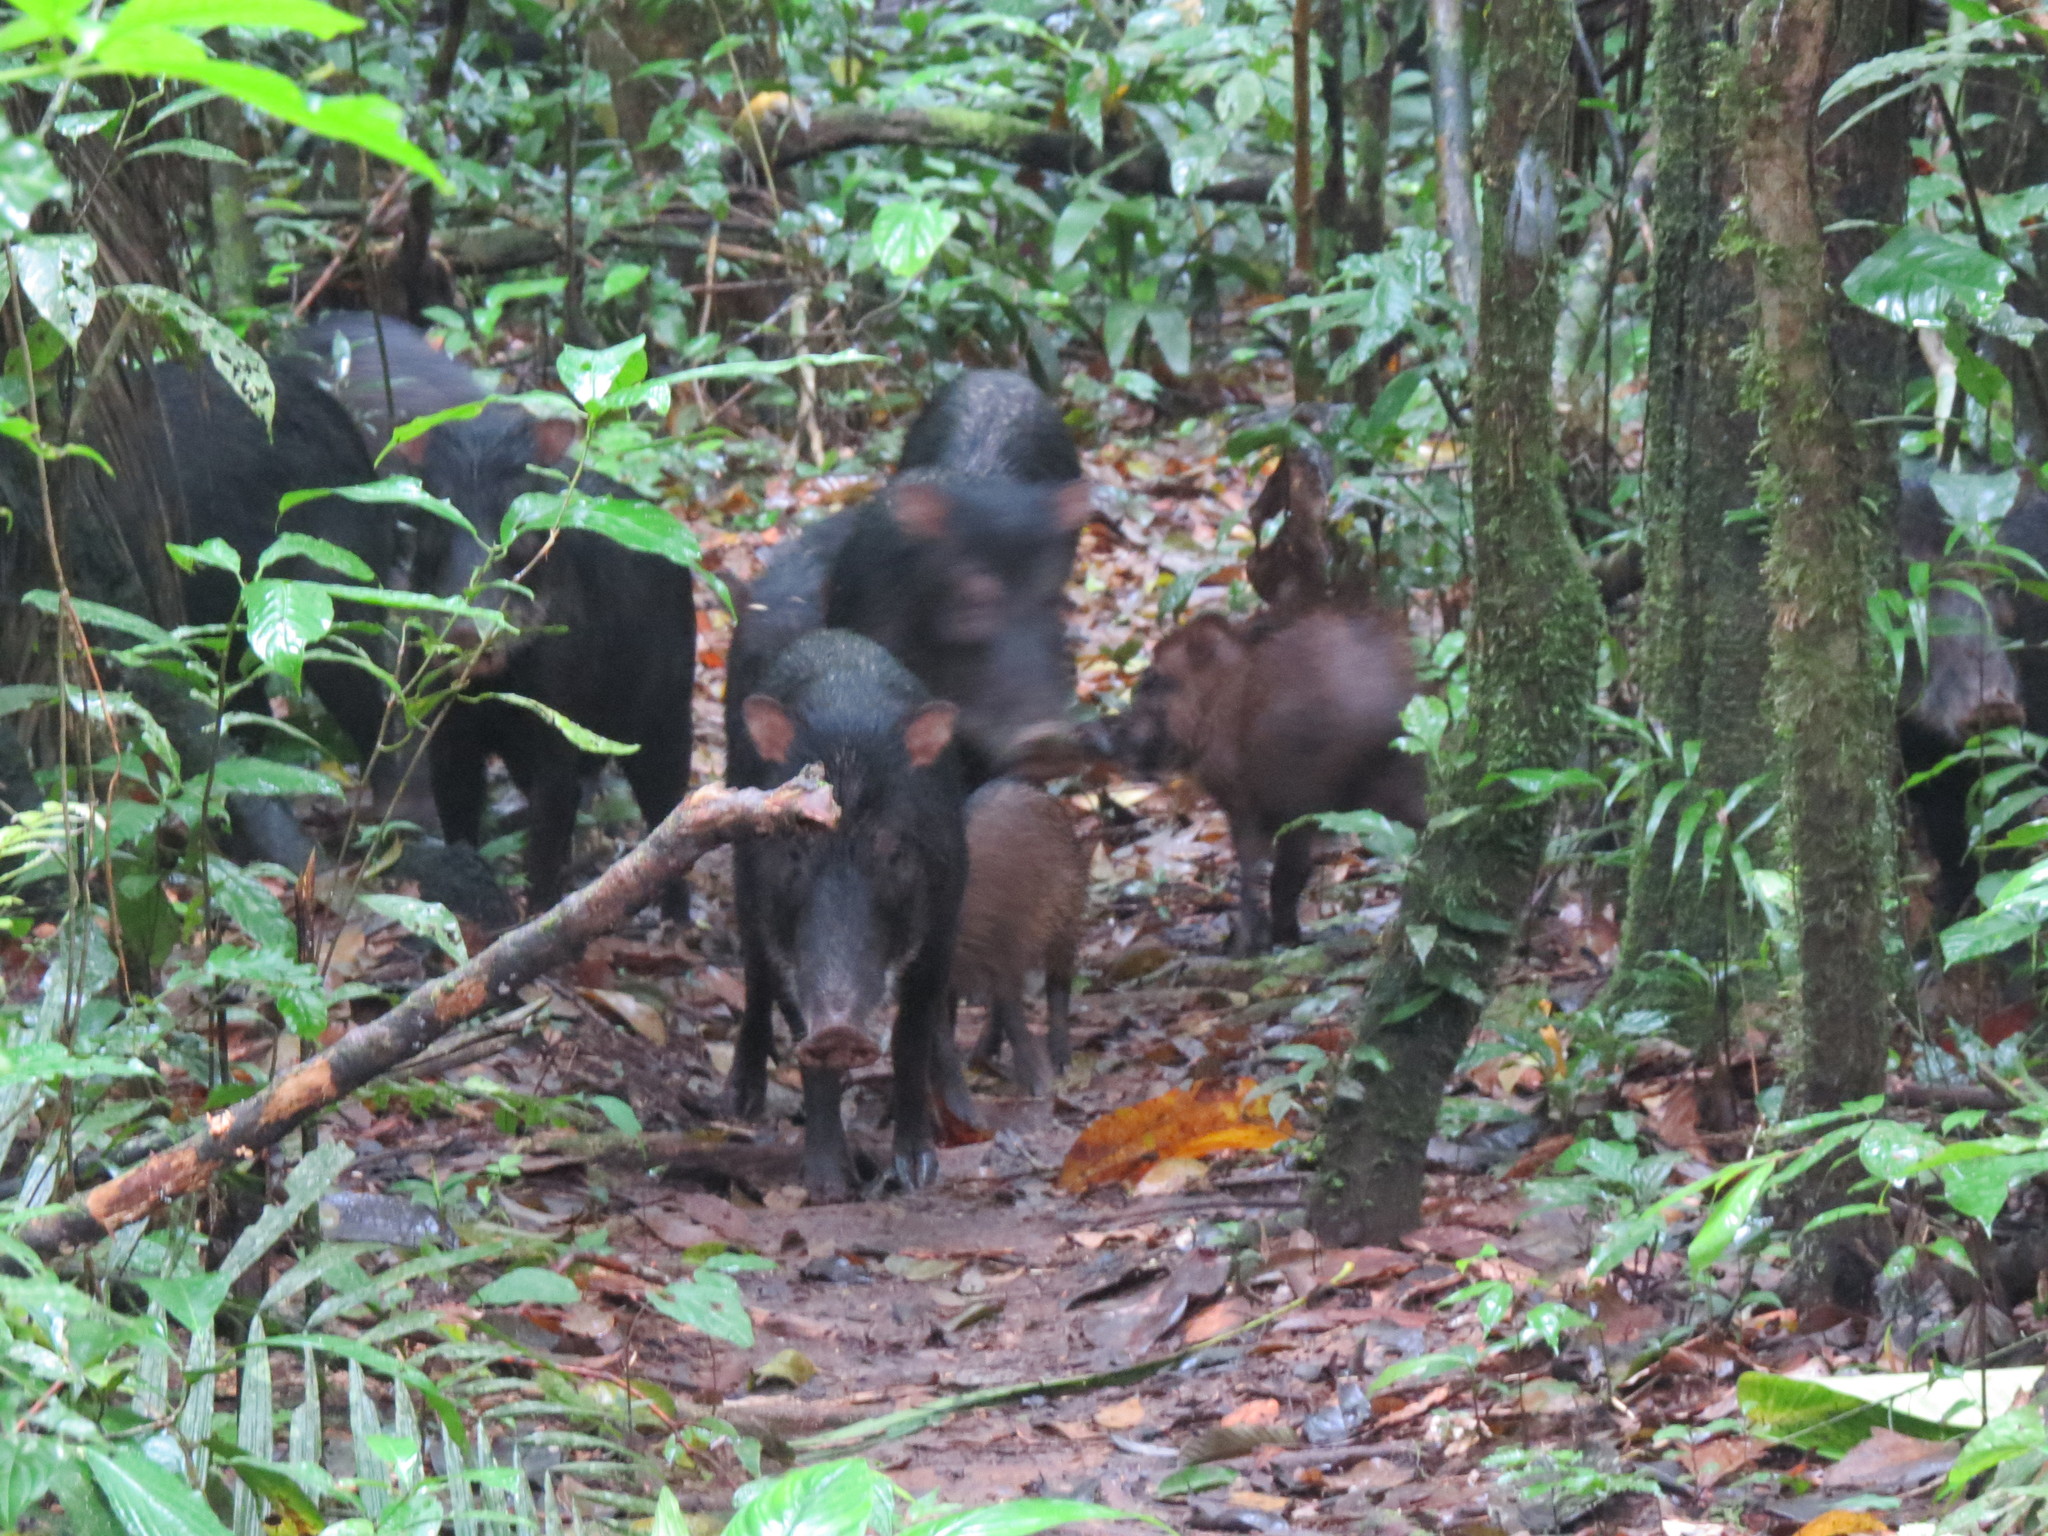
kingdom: Animalia
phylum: Chordata
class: Mammalia
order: Artiodactyla
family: Tayassuidae
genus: Tayassu
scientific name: Tayassu pecari
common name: White-lipped peccary
